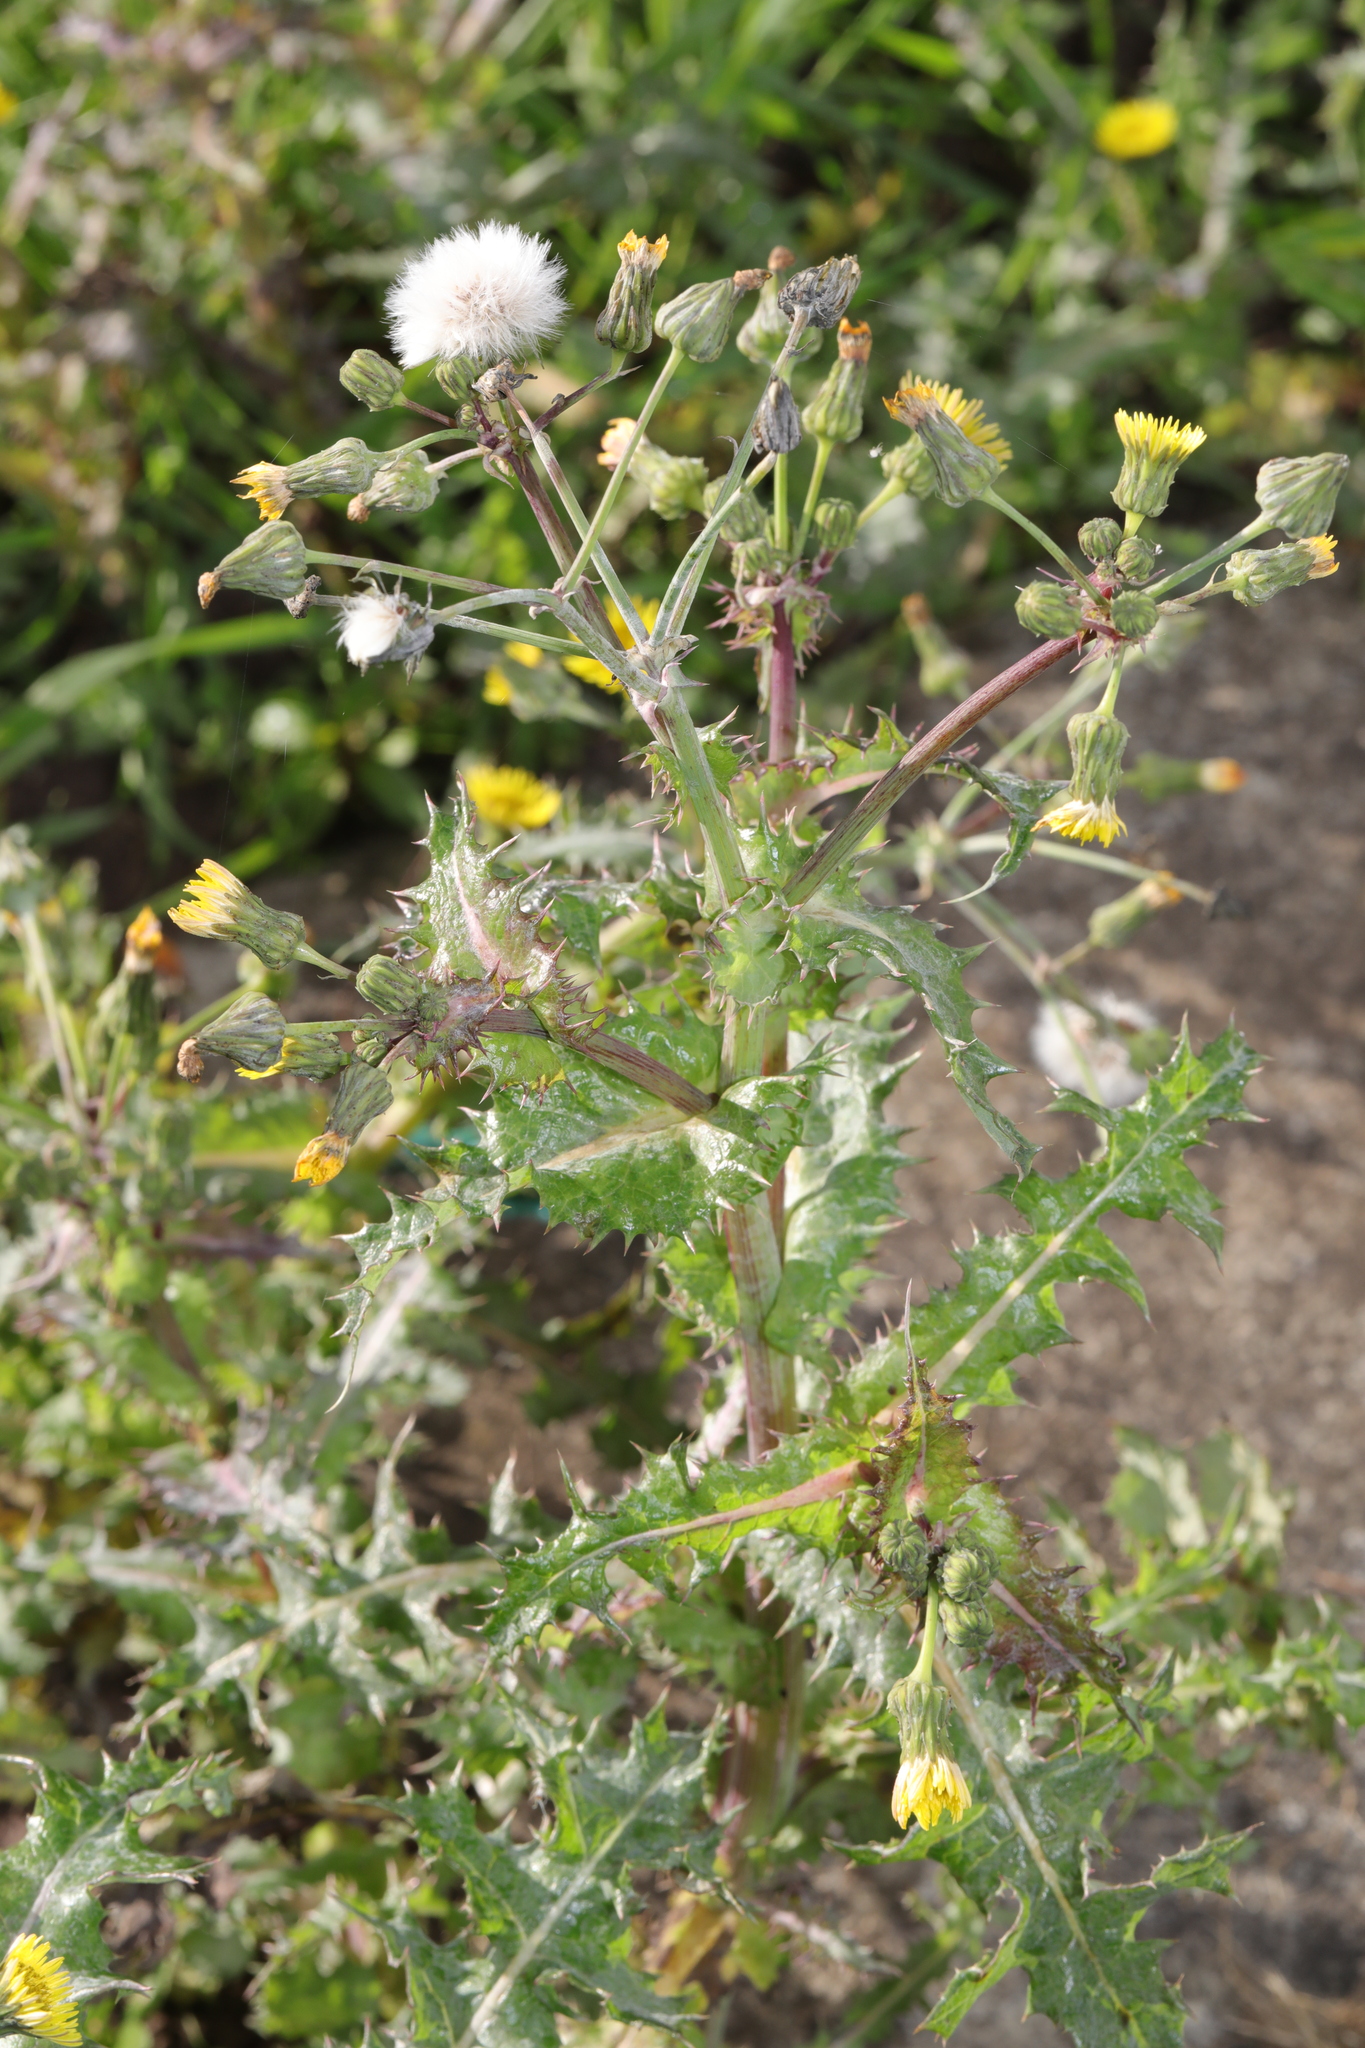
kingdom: Plantae
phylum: Tracheophyta
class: Magnoliopsida
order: Asterales
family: Asteraceae
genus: Sonchus
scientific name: Sonchus asper
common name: Prickly sow-thistle
